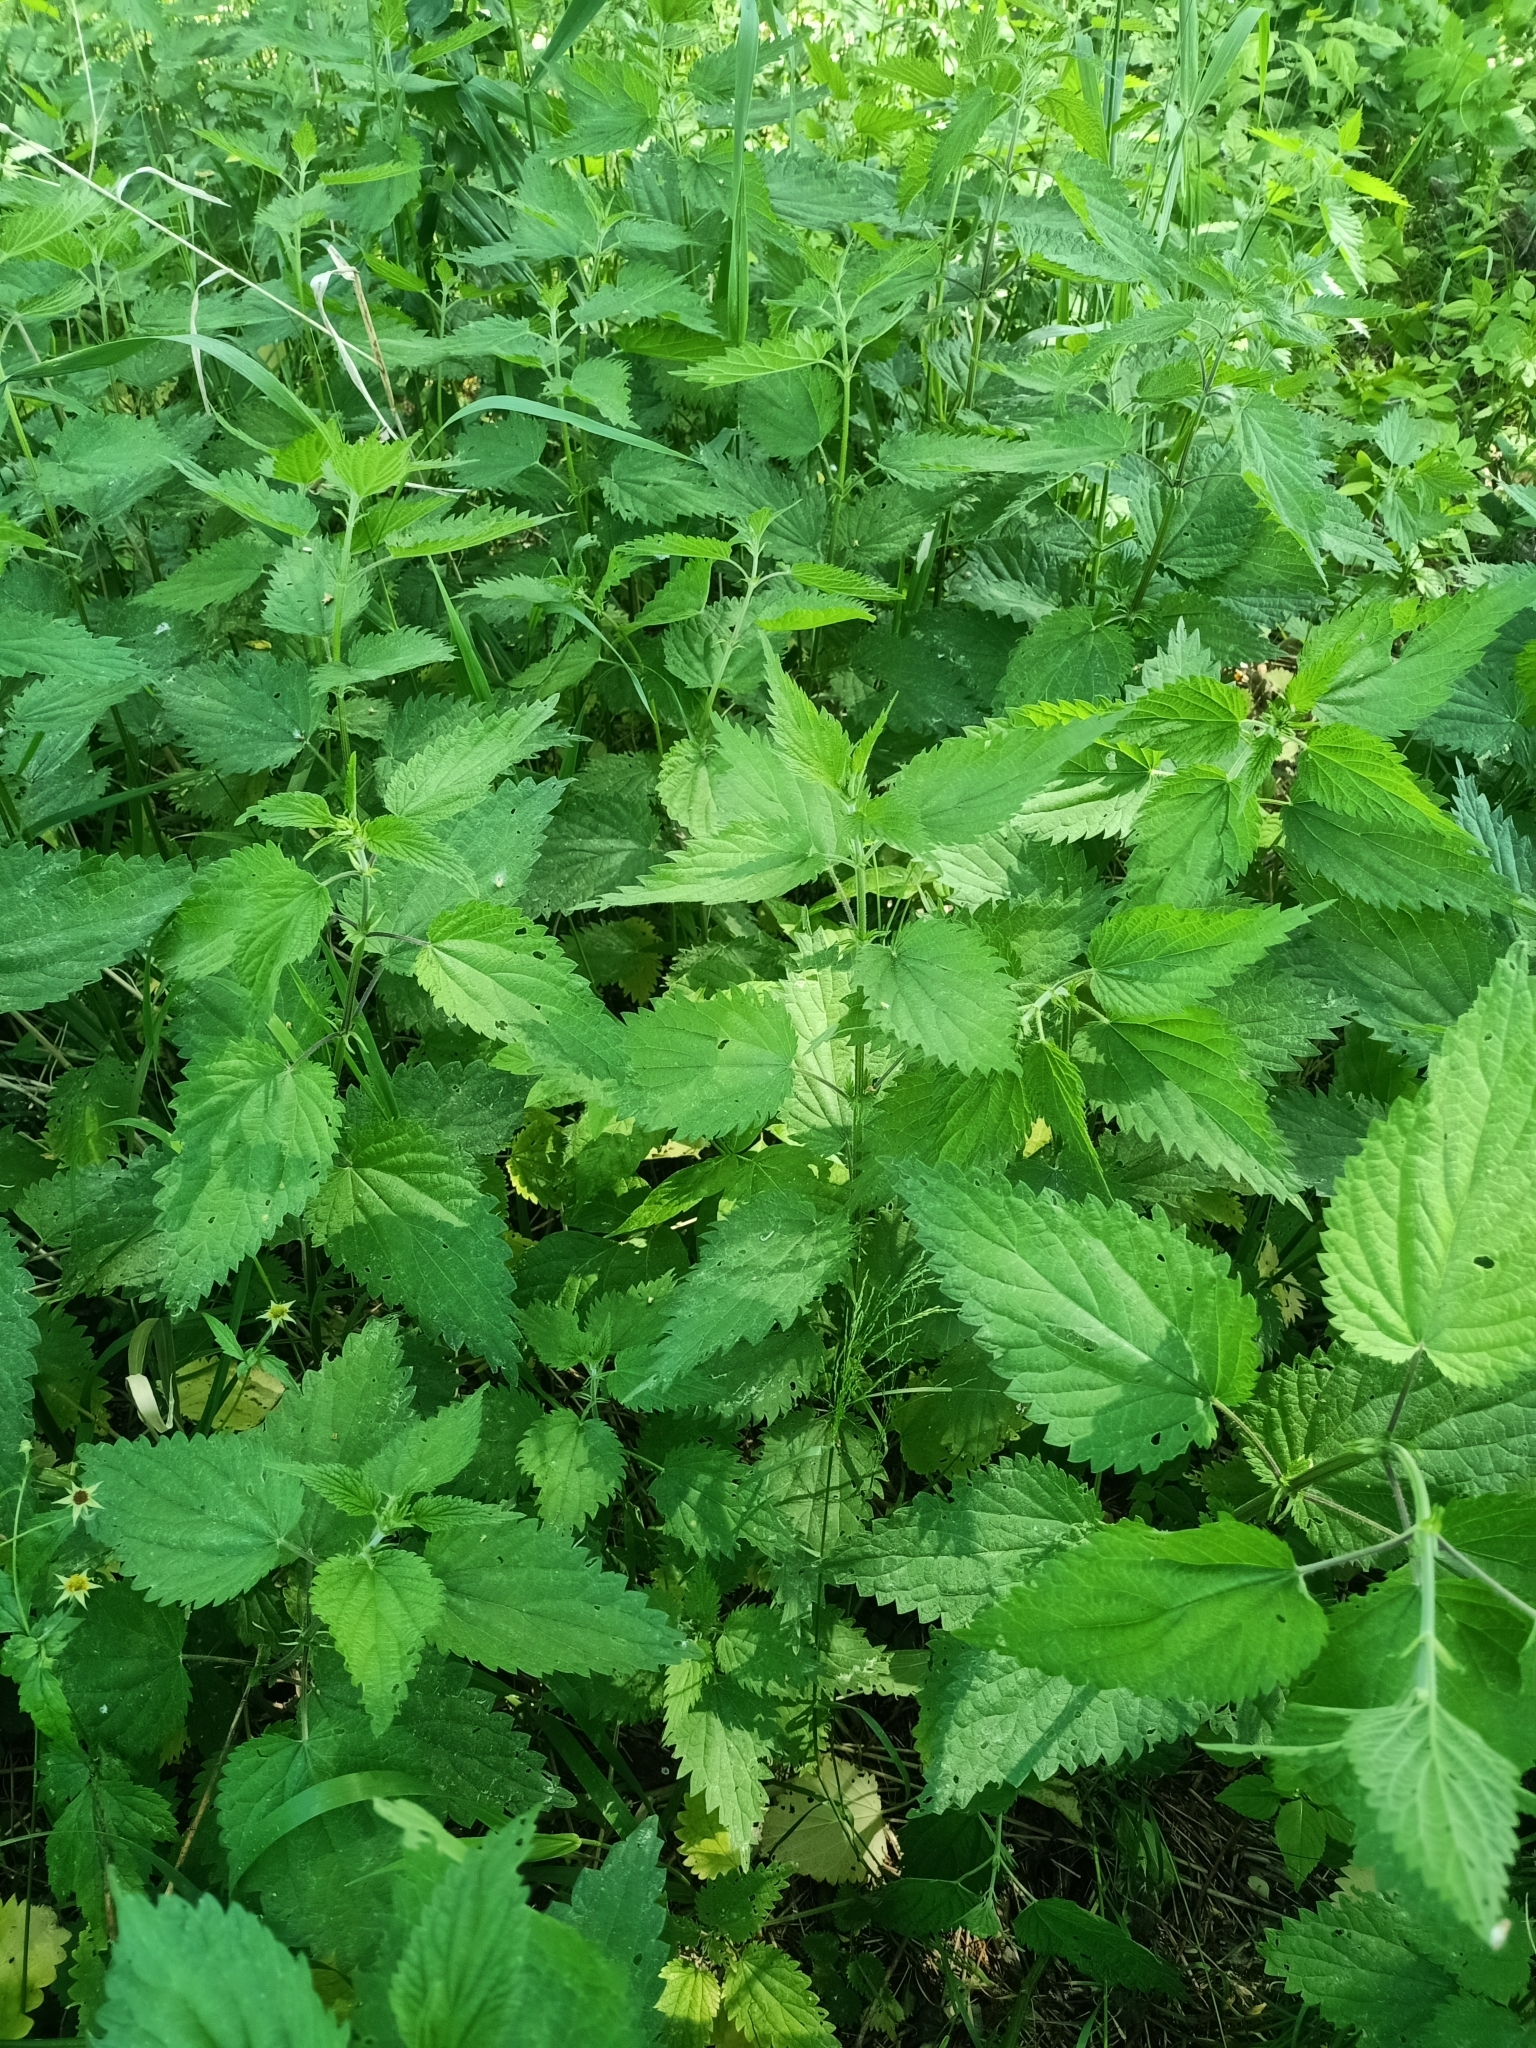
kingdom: Plantae
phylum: Tracheophyta
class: Magnoliopsida
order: Rosales
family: Urticaceae
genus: Urtica
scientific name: Urtica dioica
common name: Common nettle
